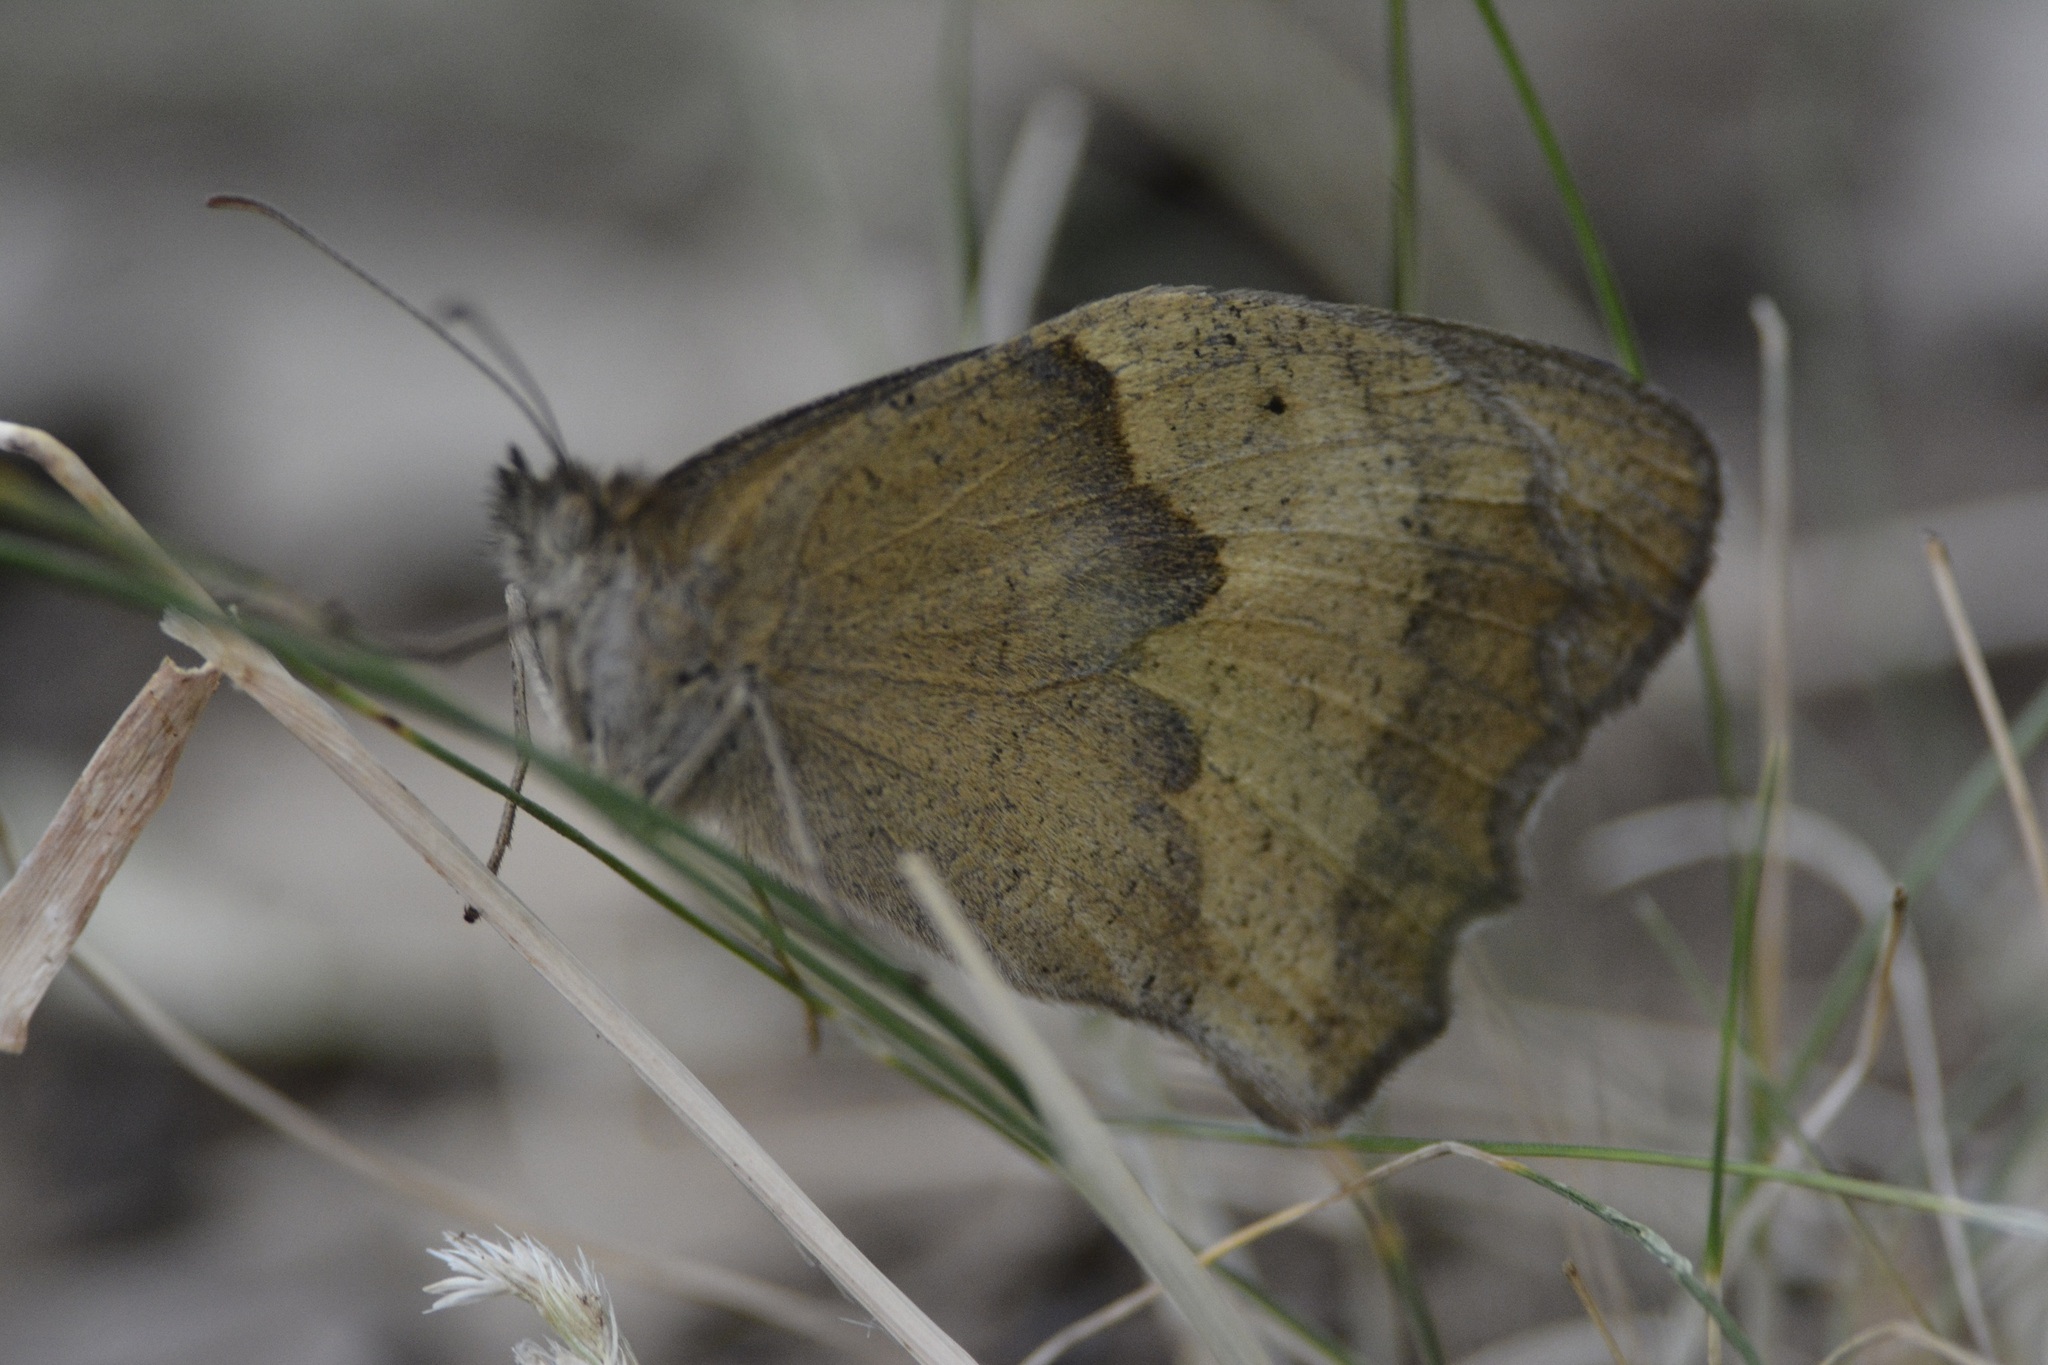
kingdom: Animalia
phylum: Arthropoda
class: Insecta
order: Lepidoptera
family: Nymphalidae
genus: Maniola
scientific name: Maniola jurtina
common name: Meadow brown
